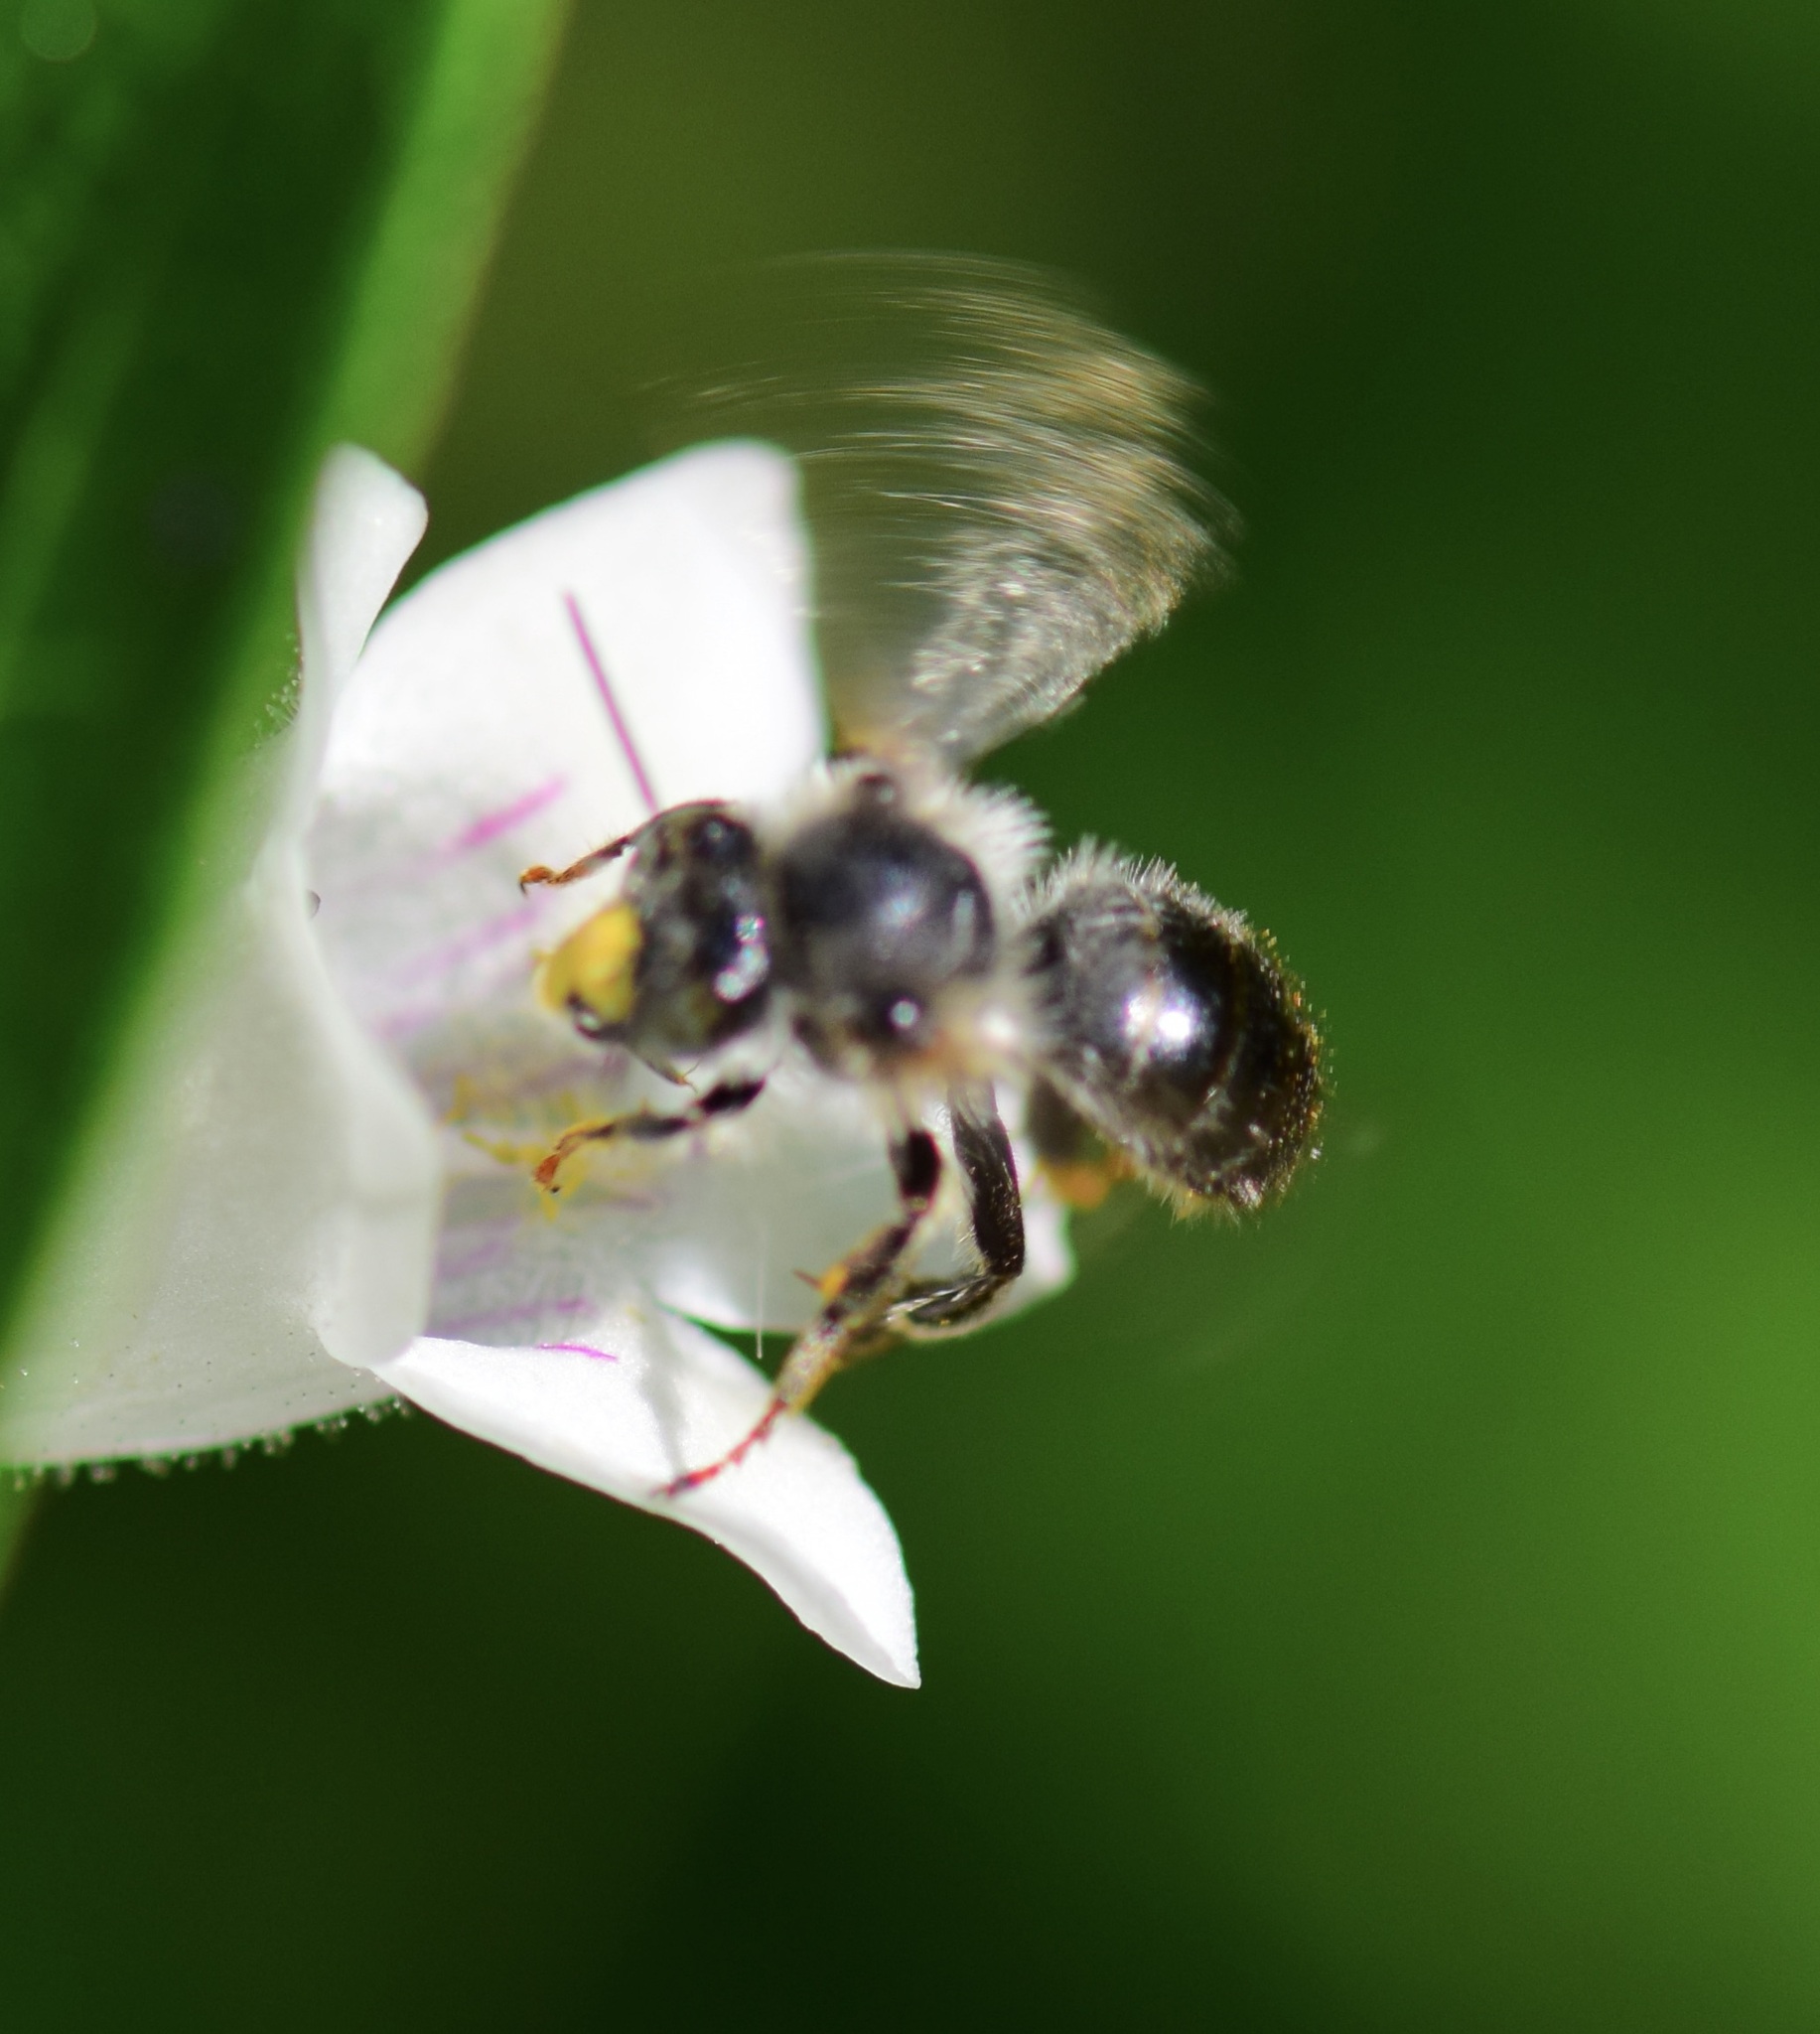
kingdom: Animalia
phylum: Arthropoda
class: Insecta
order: Hymenoptera
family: Apidae
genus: Anthophora
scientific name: Anthophora terminalis
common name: Orange-tipped wood-digger bee
